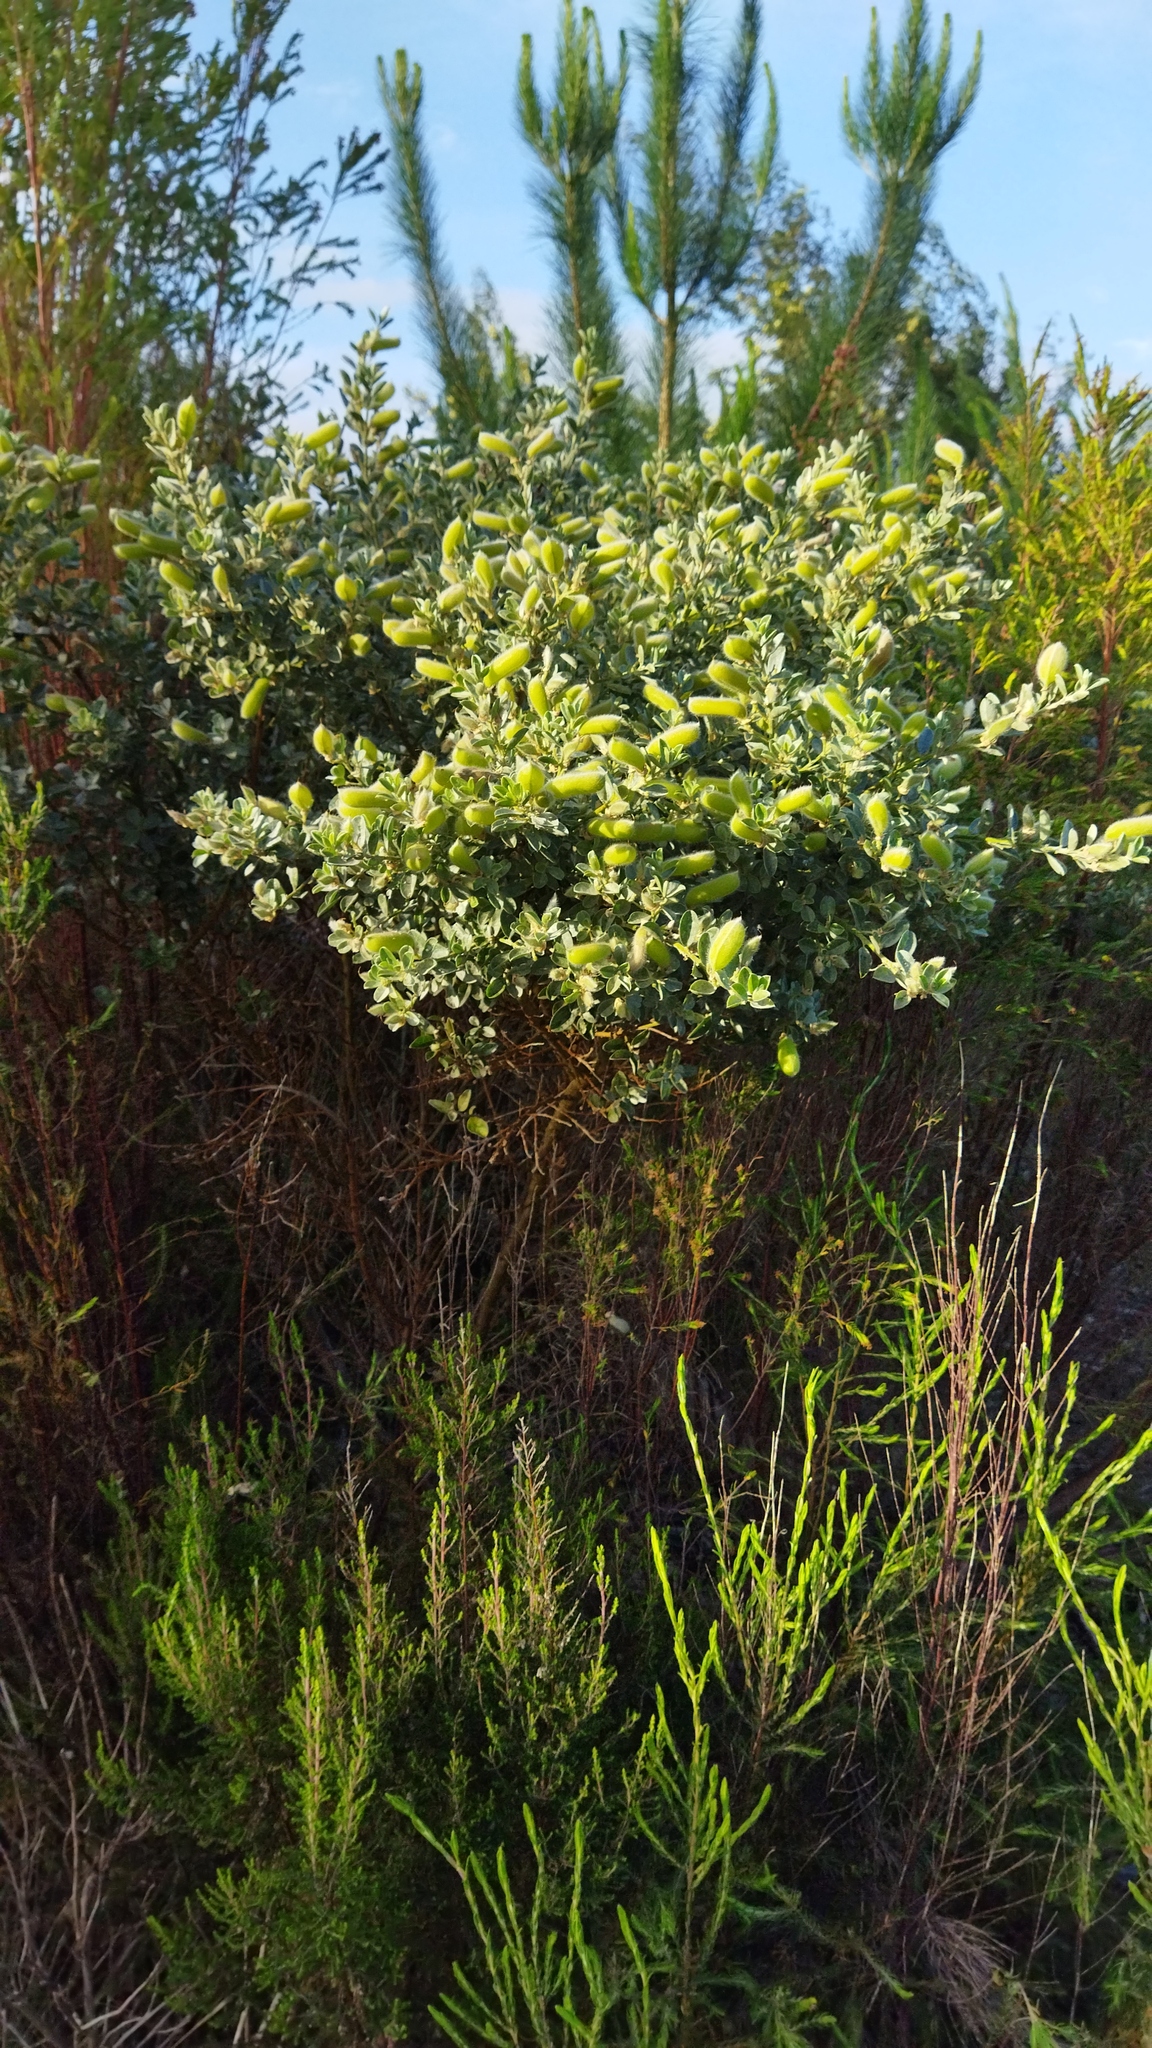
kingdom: Plantae
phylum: Tracheophyta
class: Magnoliopsida
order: Fabales
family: Fabaceae
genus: Podalyria
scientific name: Podalyria myrtillifolia
